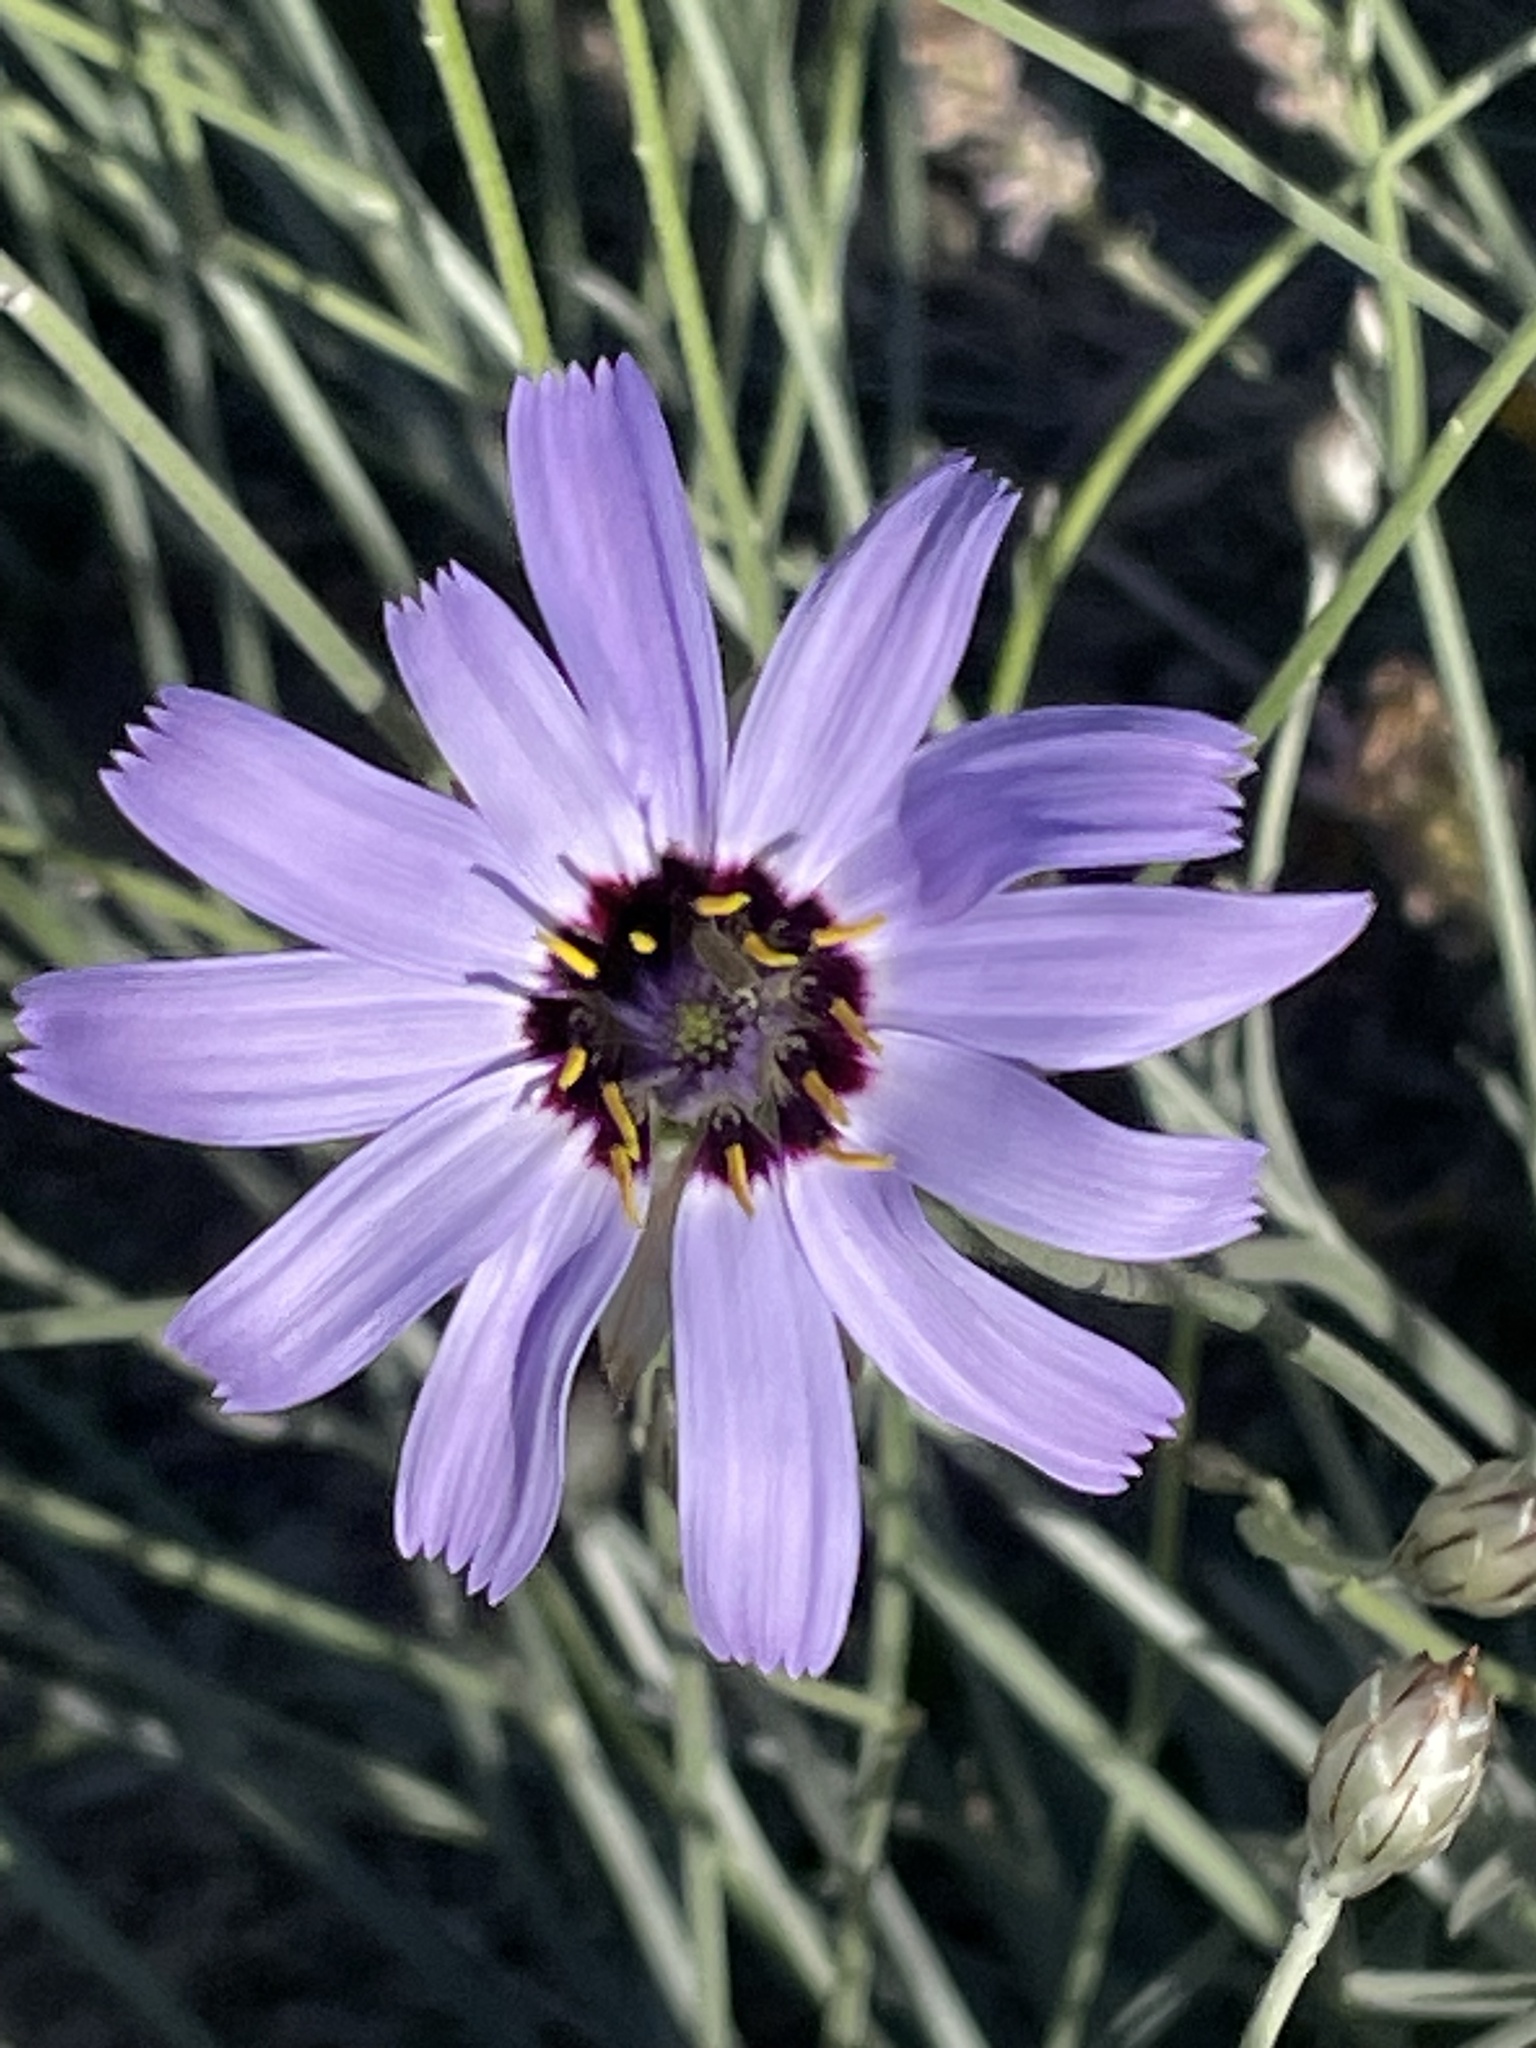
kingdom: Plantae
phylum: Tracheophyta
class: Magnoliopsida
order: Asterales
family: Asteraceae
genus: Catananche
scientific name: Catananche caerulea
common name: Blue cupidone
